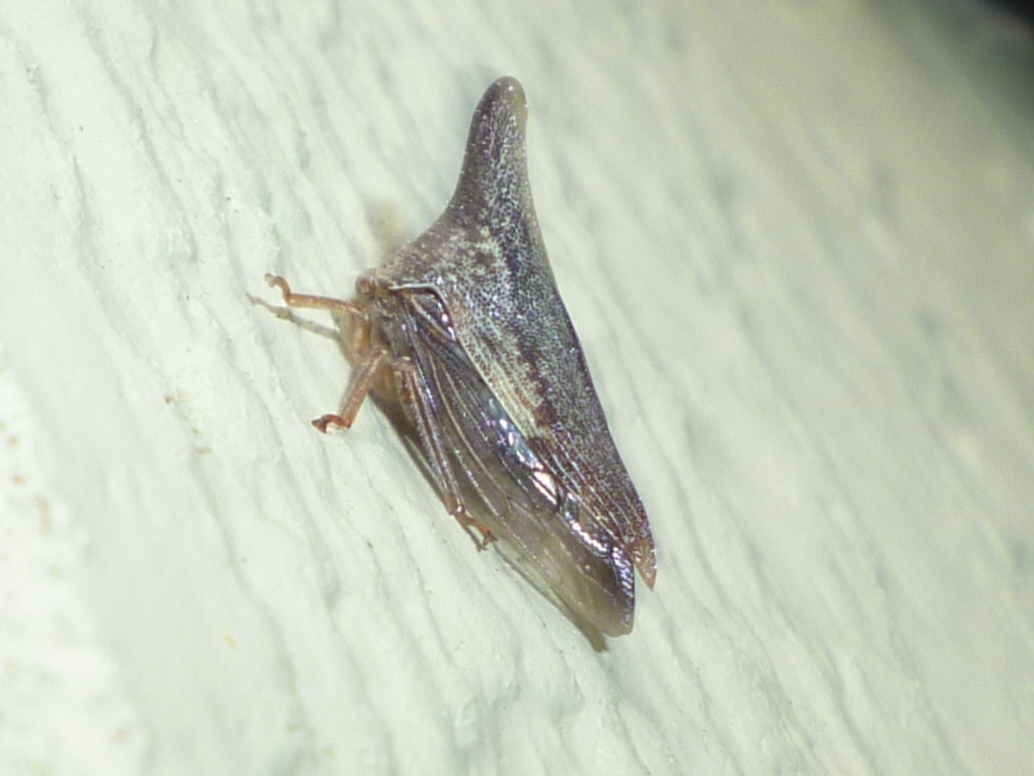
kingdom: Animalia
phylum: Arthropoda
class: Insecta
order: Hemiptera
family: Membracidae
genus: Thelia
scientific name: Thelia bimaculata
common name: Locust treehopper
